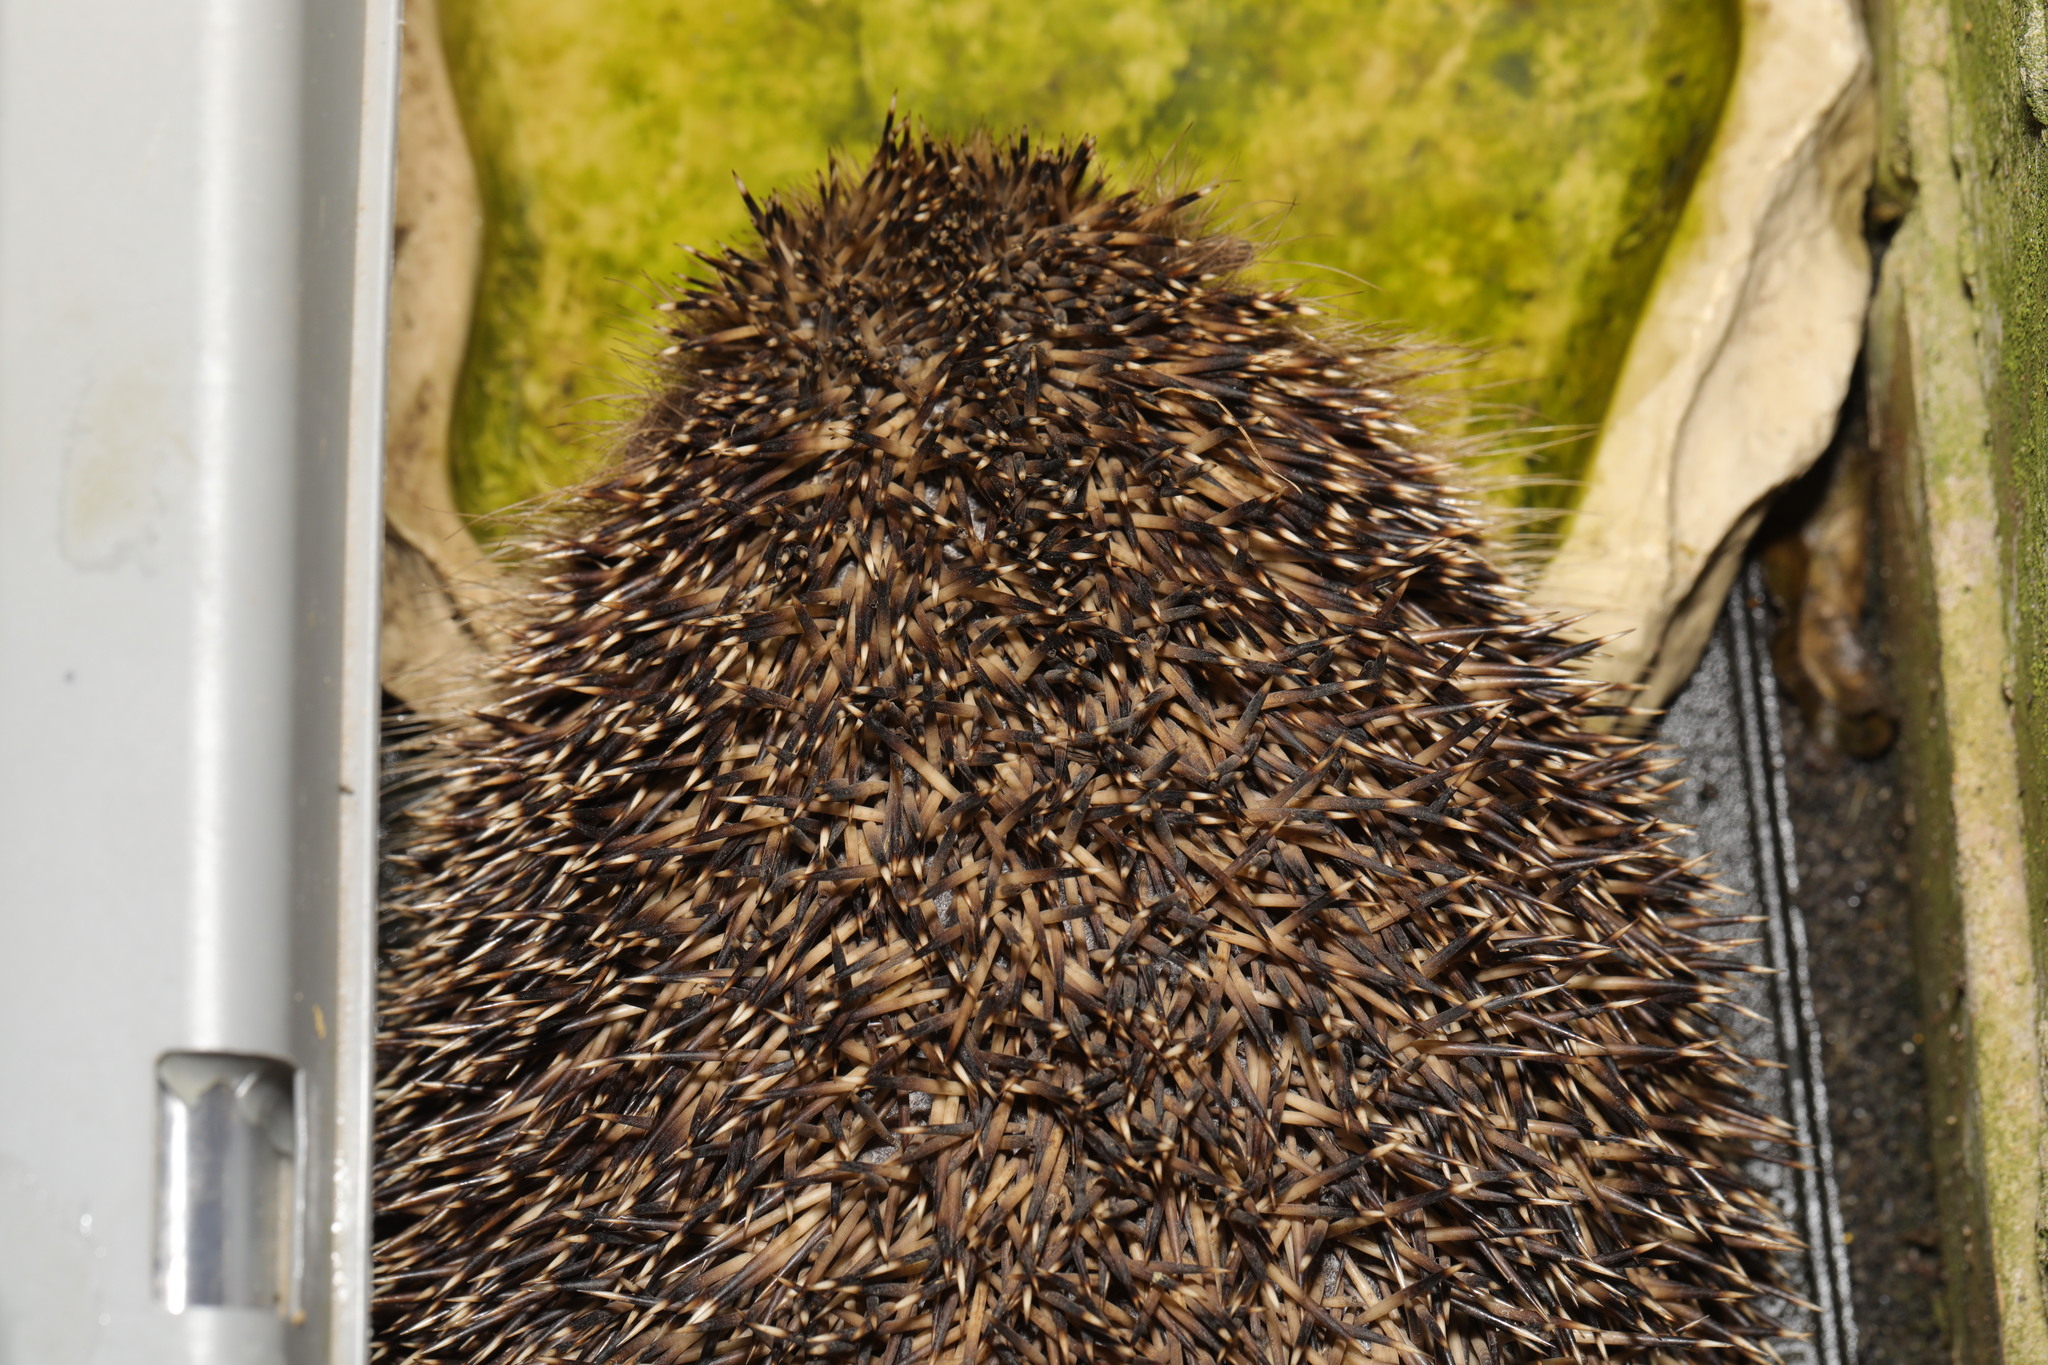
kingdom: Animalia
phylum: Chordata
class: Mammalia
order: Erinaceomorpha
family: Erinaceidae
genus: Erinaceus
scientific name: Erinaceus europaeus
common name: West european hedgehog
